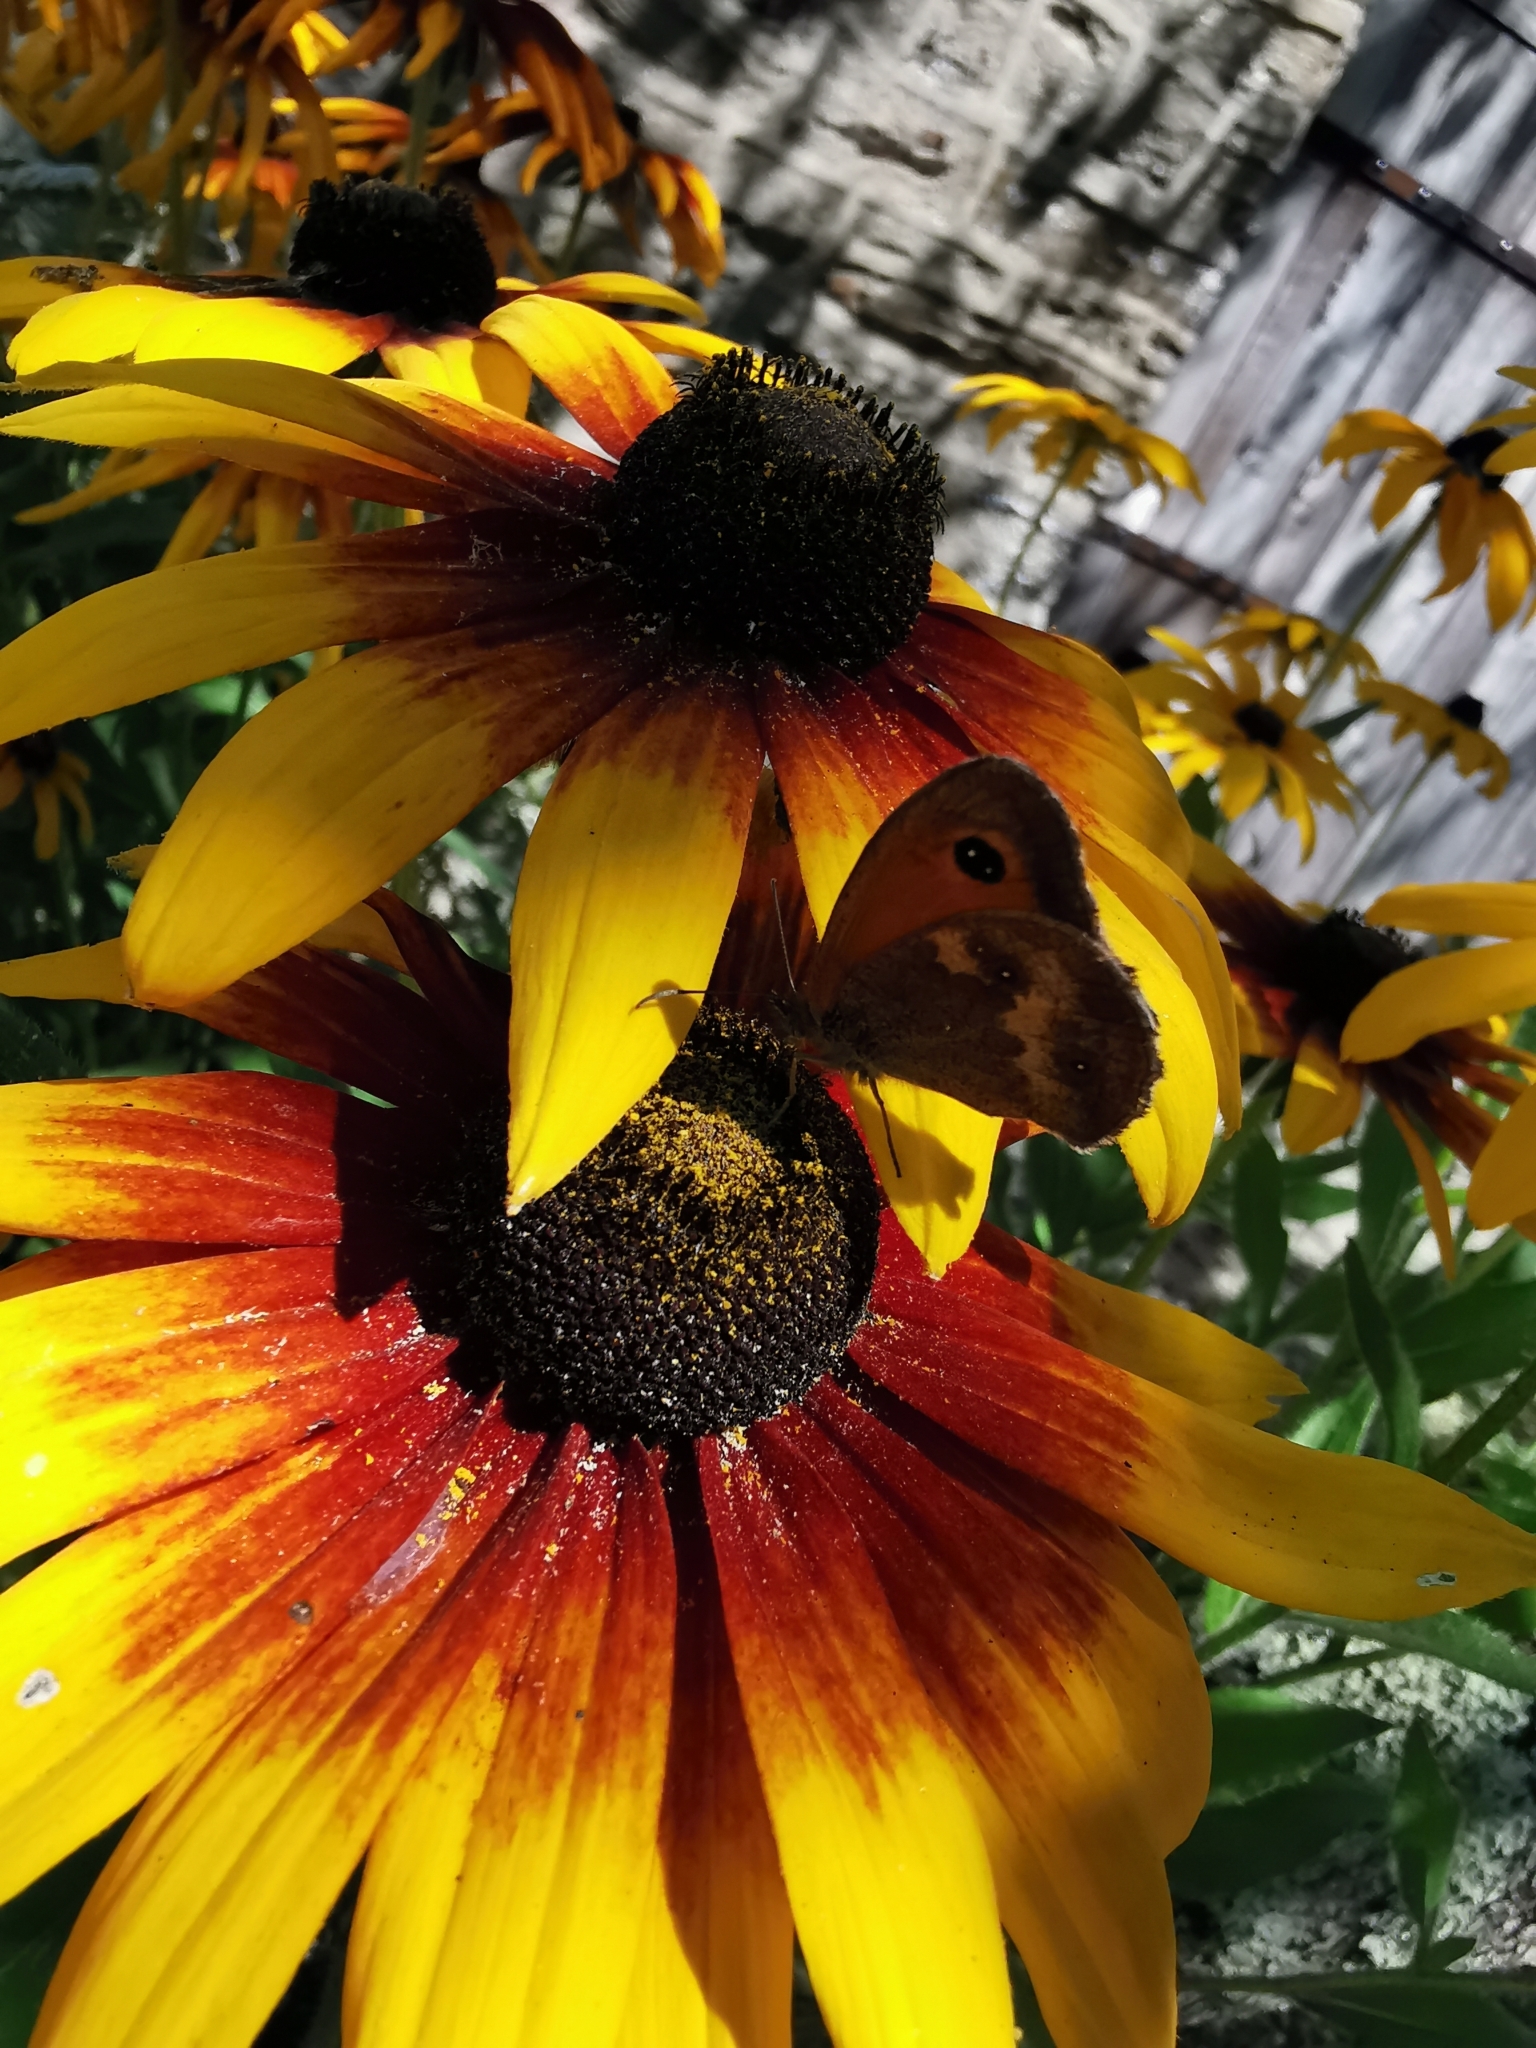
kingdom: Animalia
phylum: Arthropoda
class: Insecta
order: Lepidoptera
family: Nymphalidae
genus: Pyronia
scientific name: Pyronia tithonus
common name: Gatekeeper
